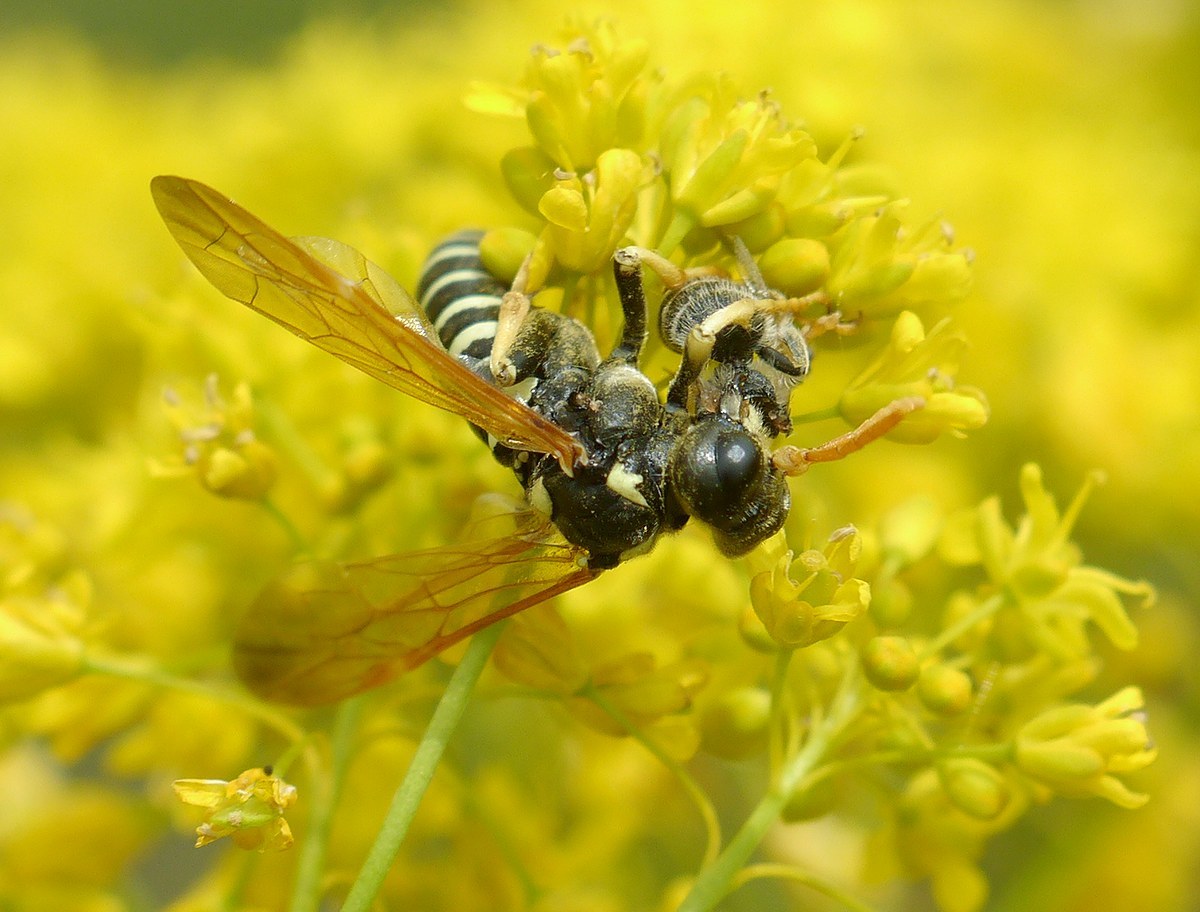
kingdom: Animalia
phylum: Arthropoda
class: Insecta
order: Hymenoptera
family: Tenthredinidae
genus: Tenthredo
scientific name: Tenthredo excellens
